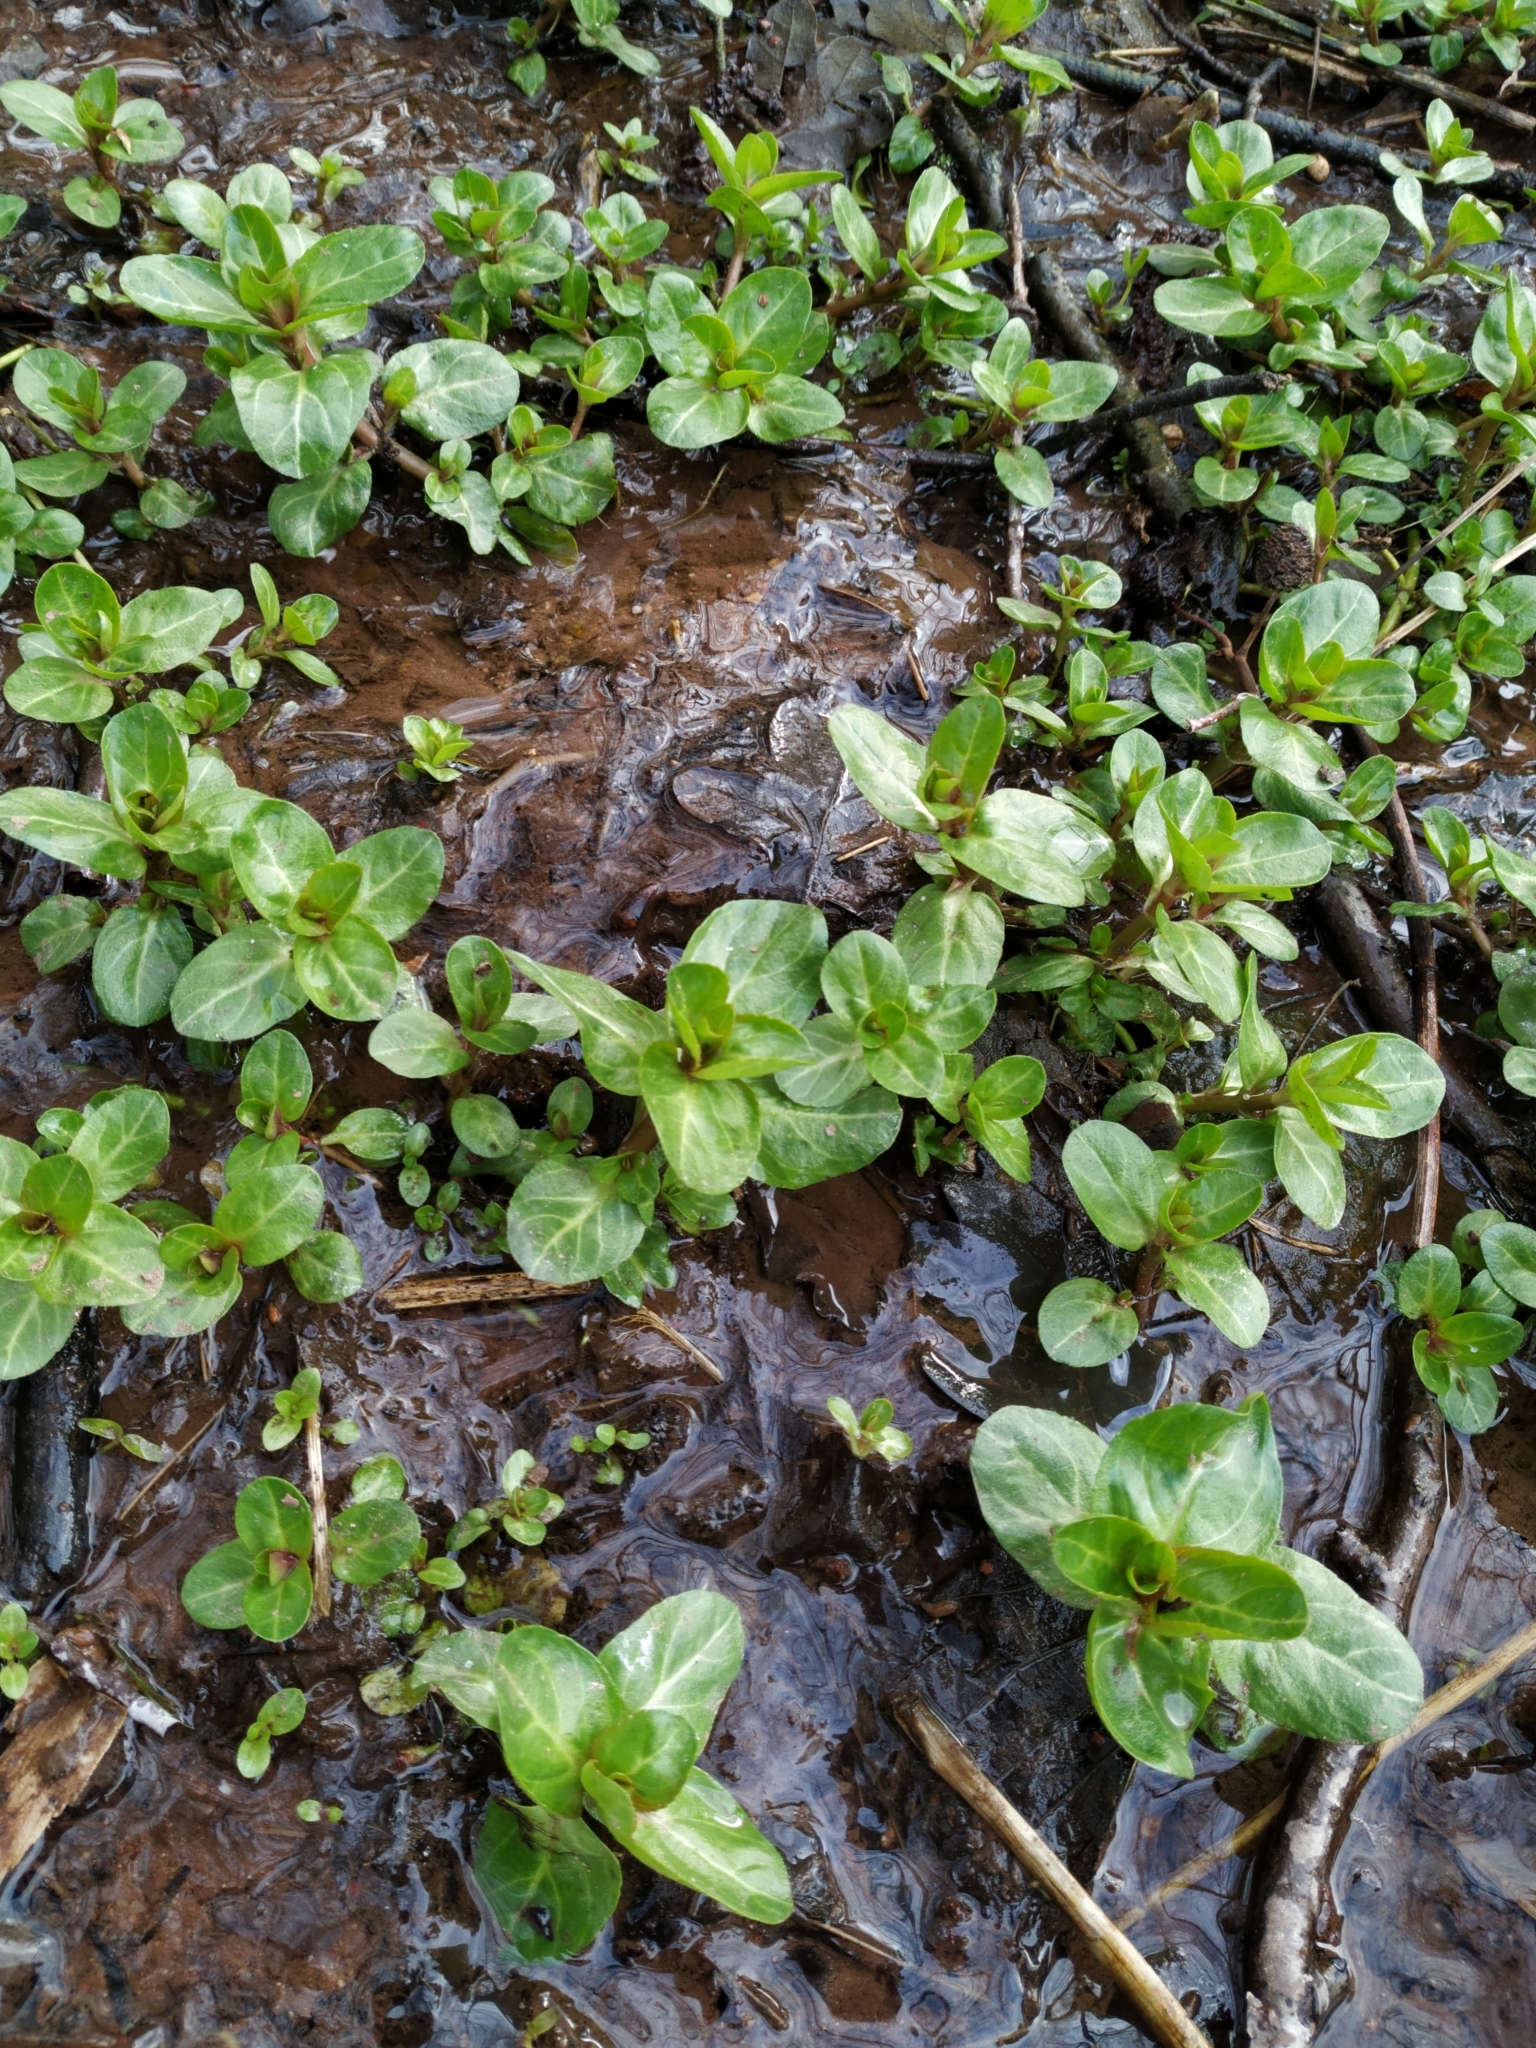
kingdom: Plantae
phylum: Tracheophyta
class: Magnoliopsida
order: Lamiales
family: Plantaginaceae
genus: Veronica
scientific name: Veronica beccabunga
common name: Brooklime
